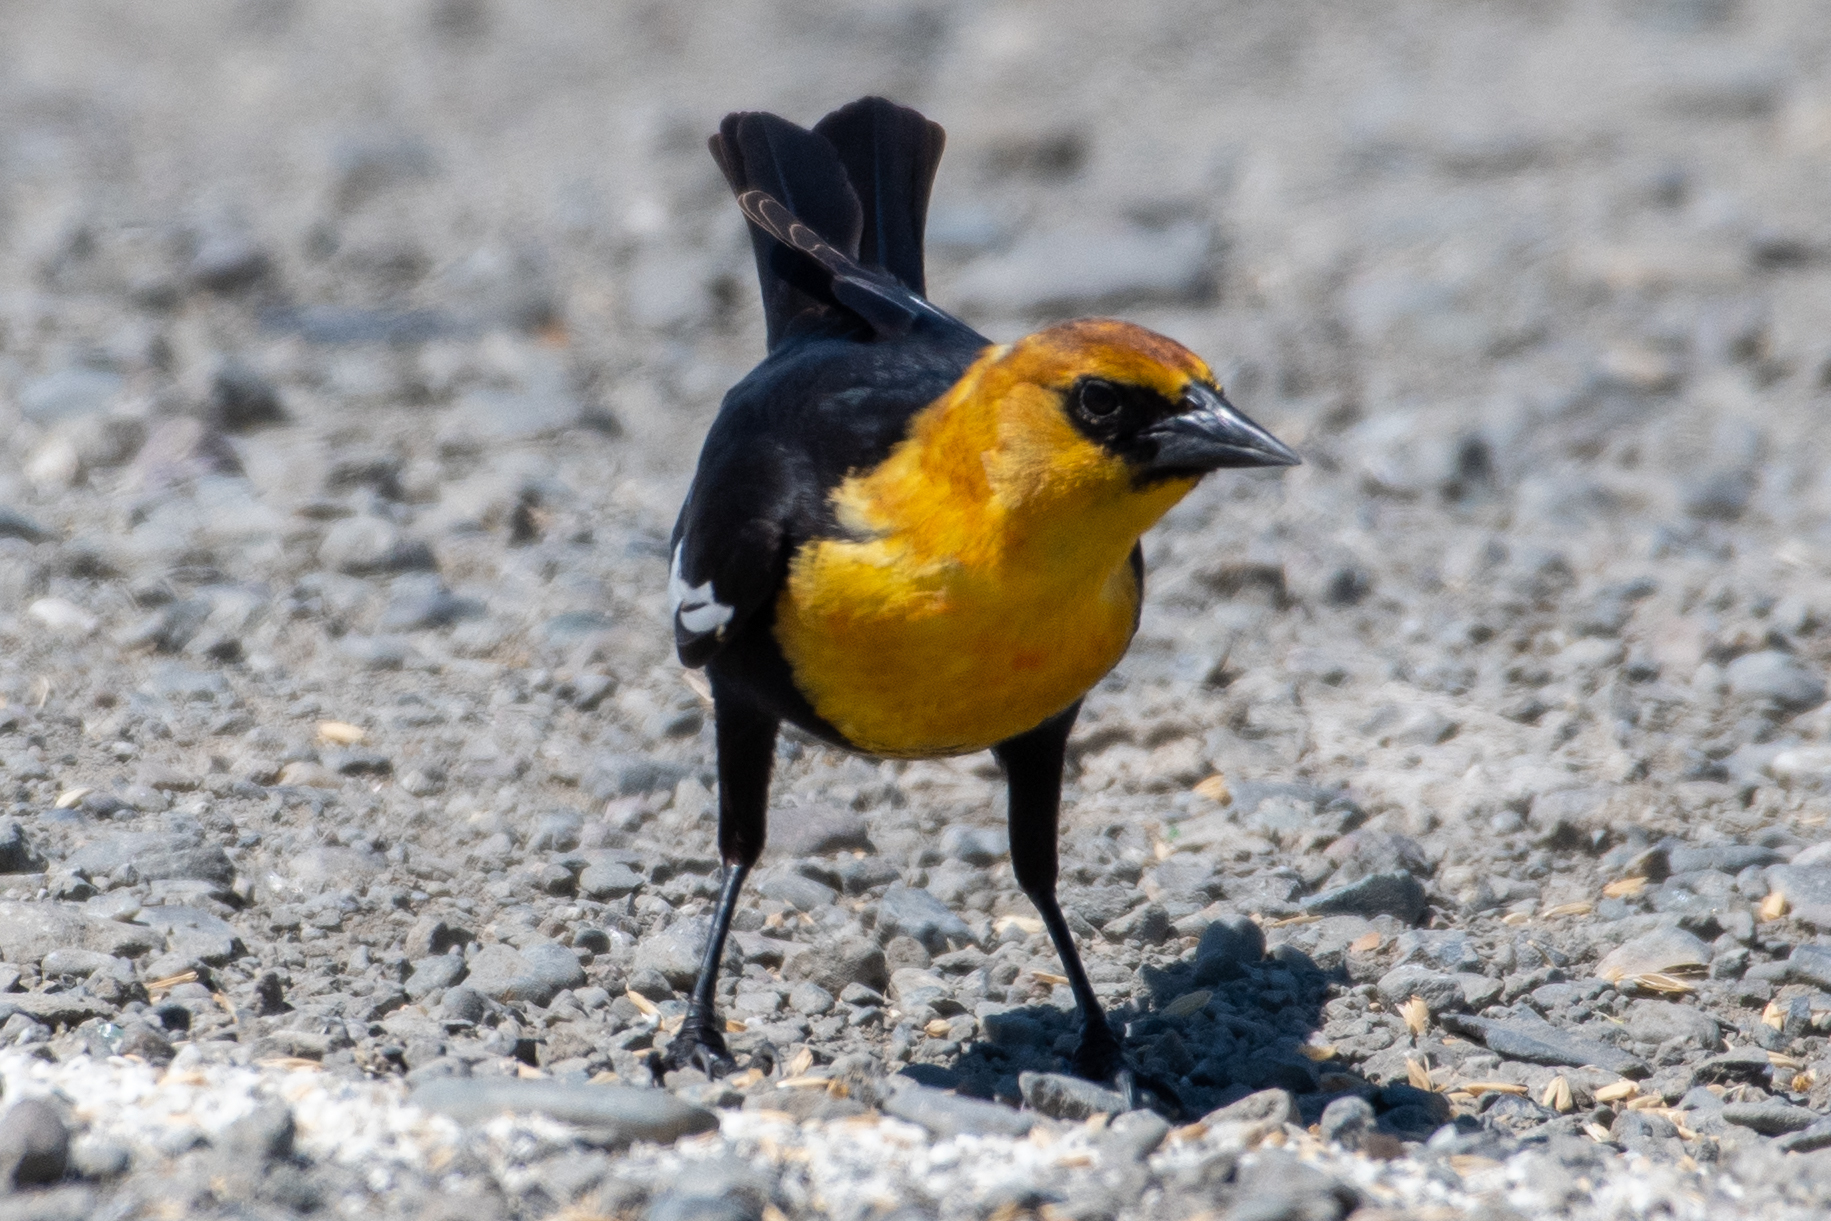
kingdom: Animalia
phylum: Chordata
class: Aves
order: Passeriformes
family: Icteridae
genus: Xanthocephalus
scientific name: Xanthocephalus xanthocephalus
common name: Yellow-headed blackbird
